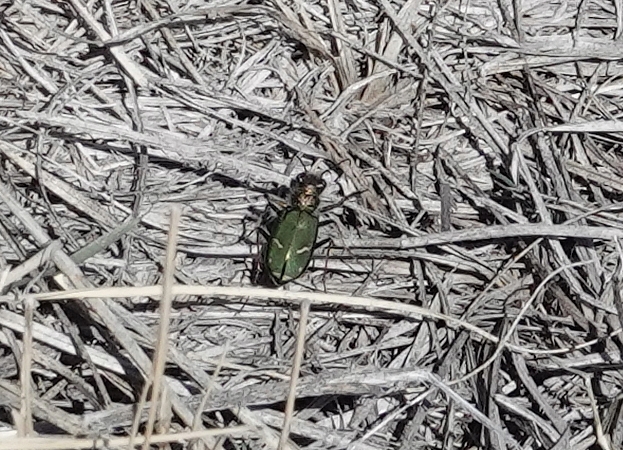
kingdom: Animalia
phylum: Arthropoda
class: Insecta
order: Coleoptera
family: Carabidae
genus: Cicindela
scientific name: Cicindela purpurea
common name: Cow path tiger beetle
